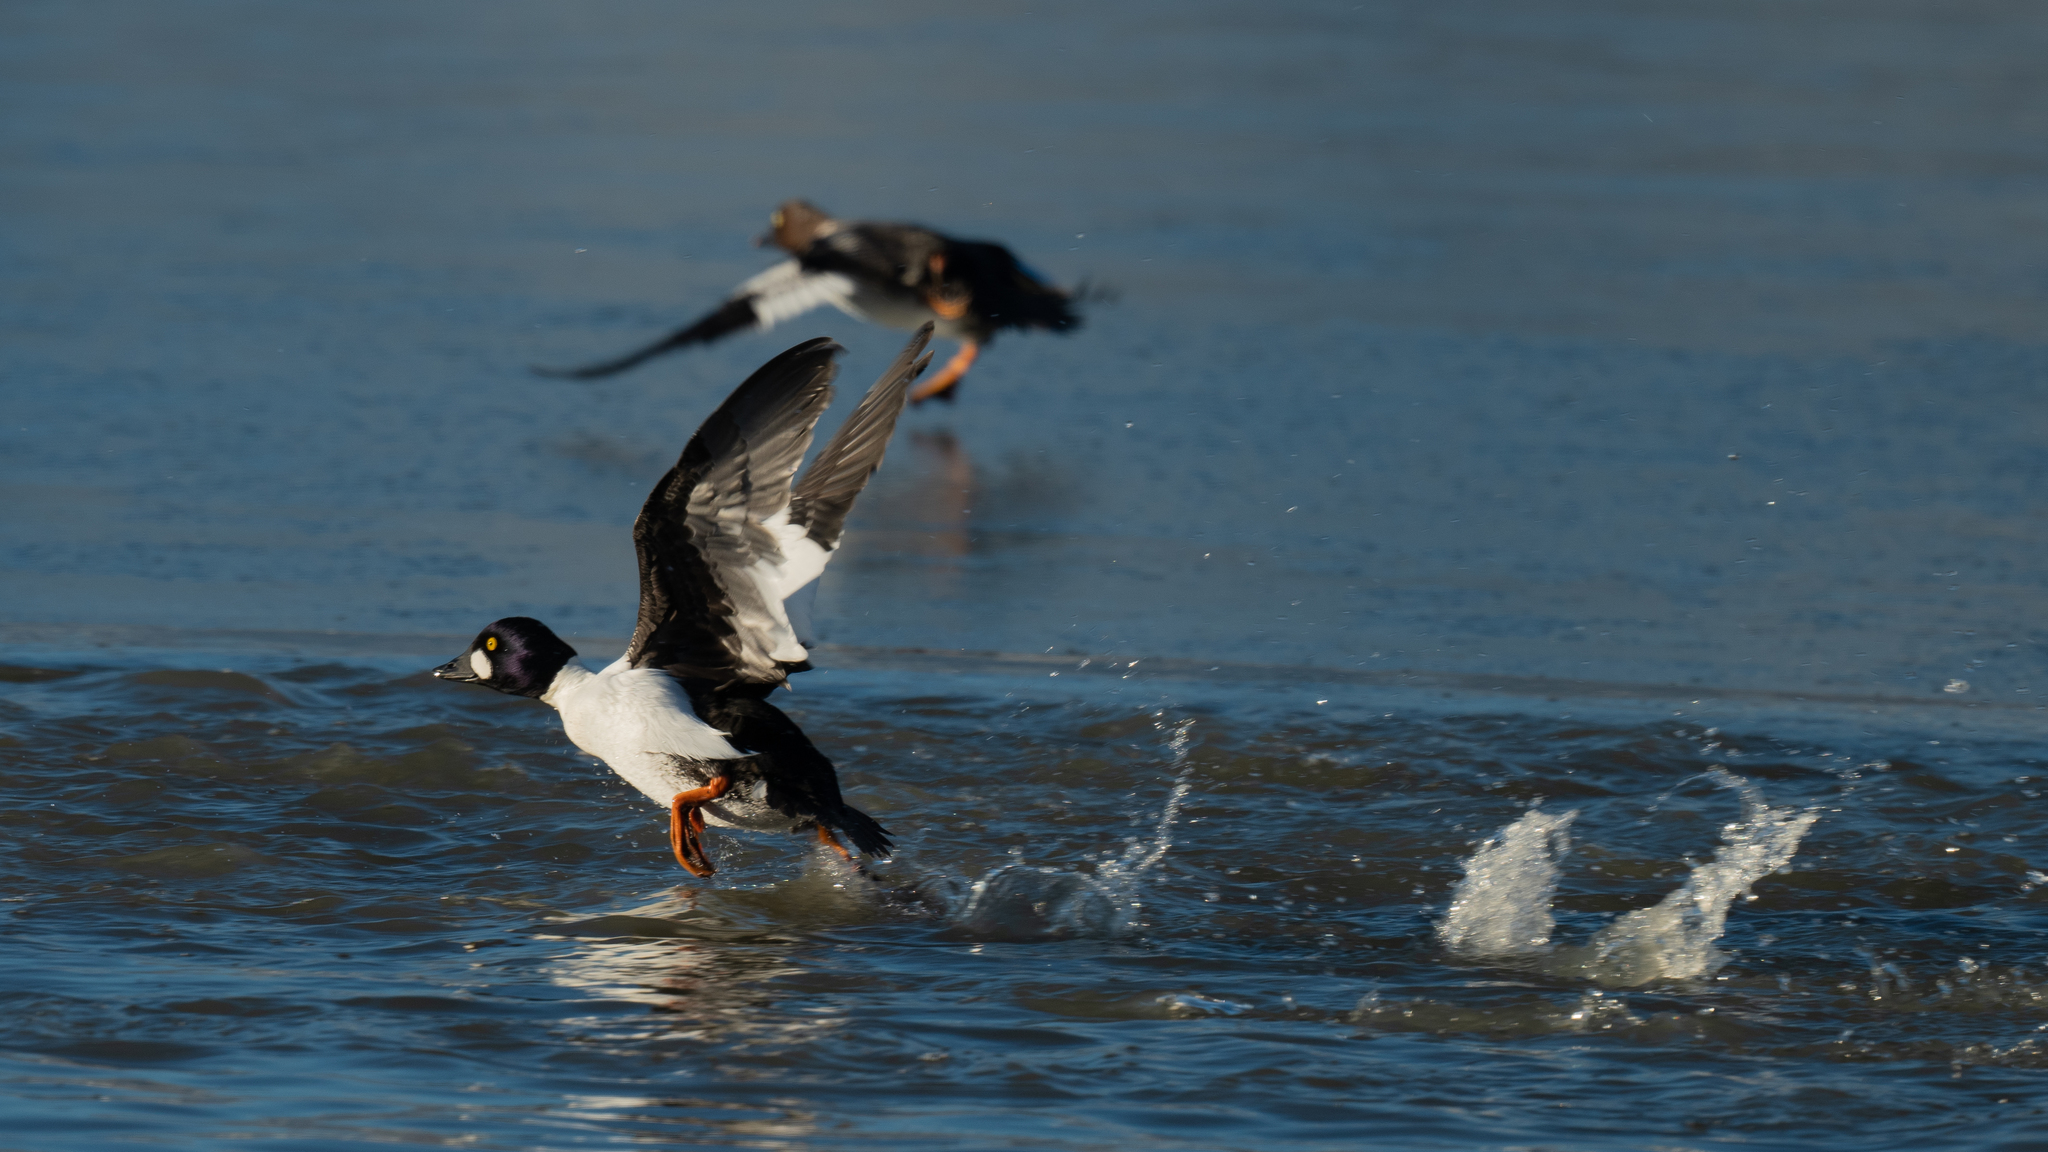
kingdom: Animalia
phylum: Chordata
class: Aves
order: Anseriformes
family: Anatidae
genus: Bucephala
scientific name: Bucephala clangula
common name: Common goldeneye
